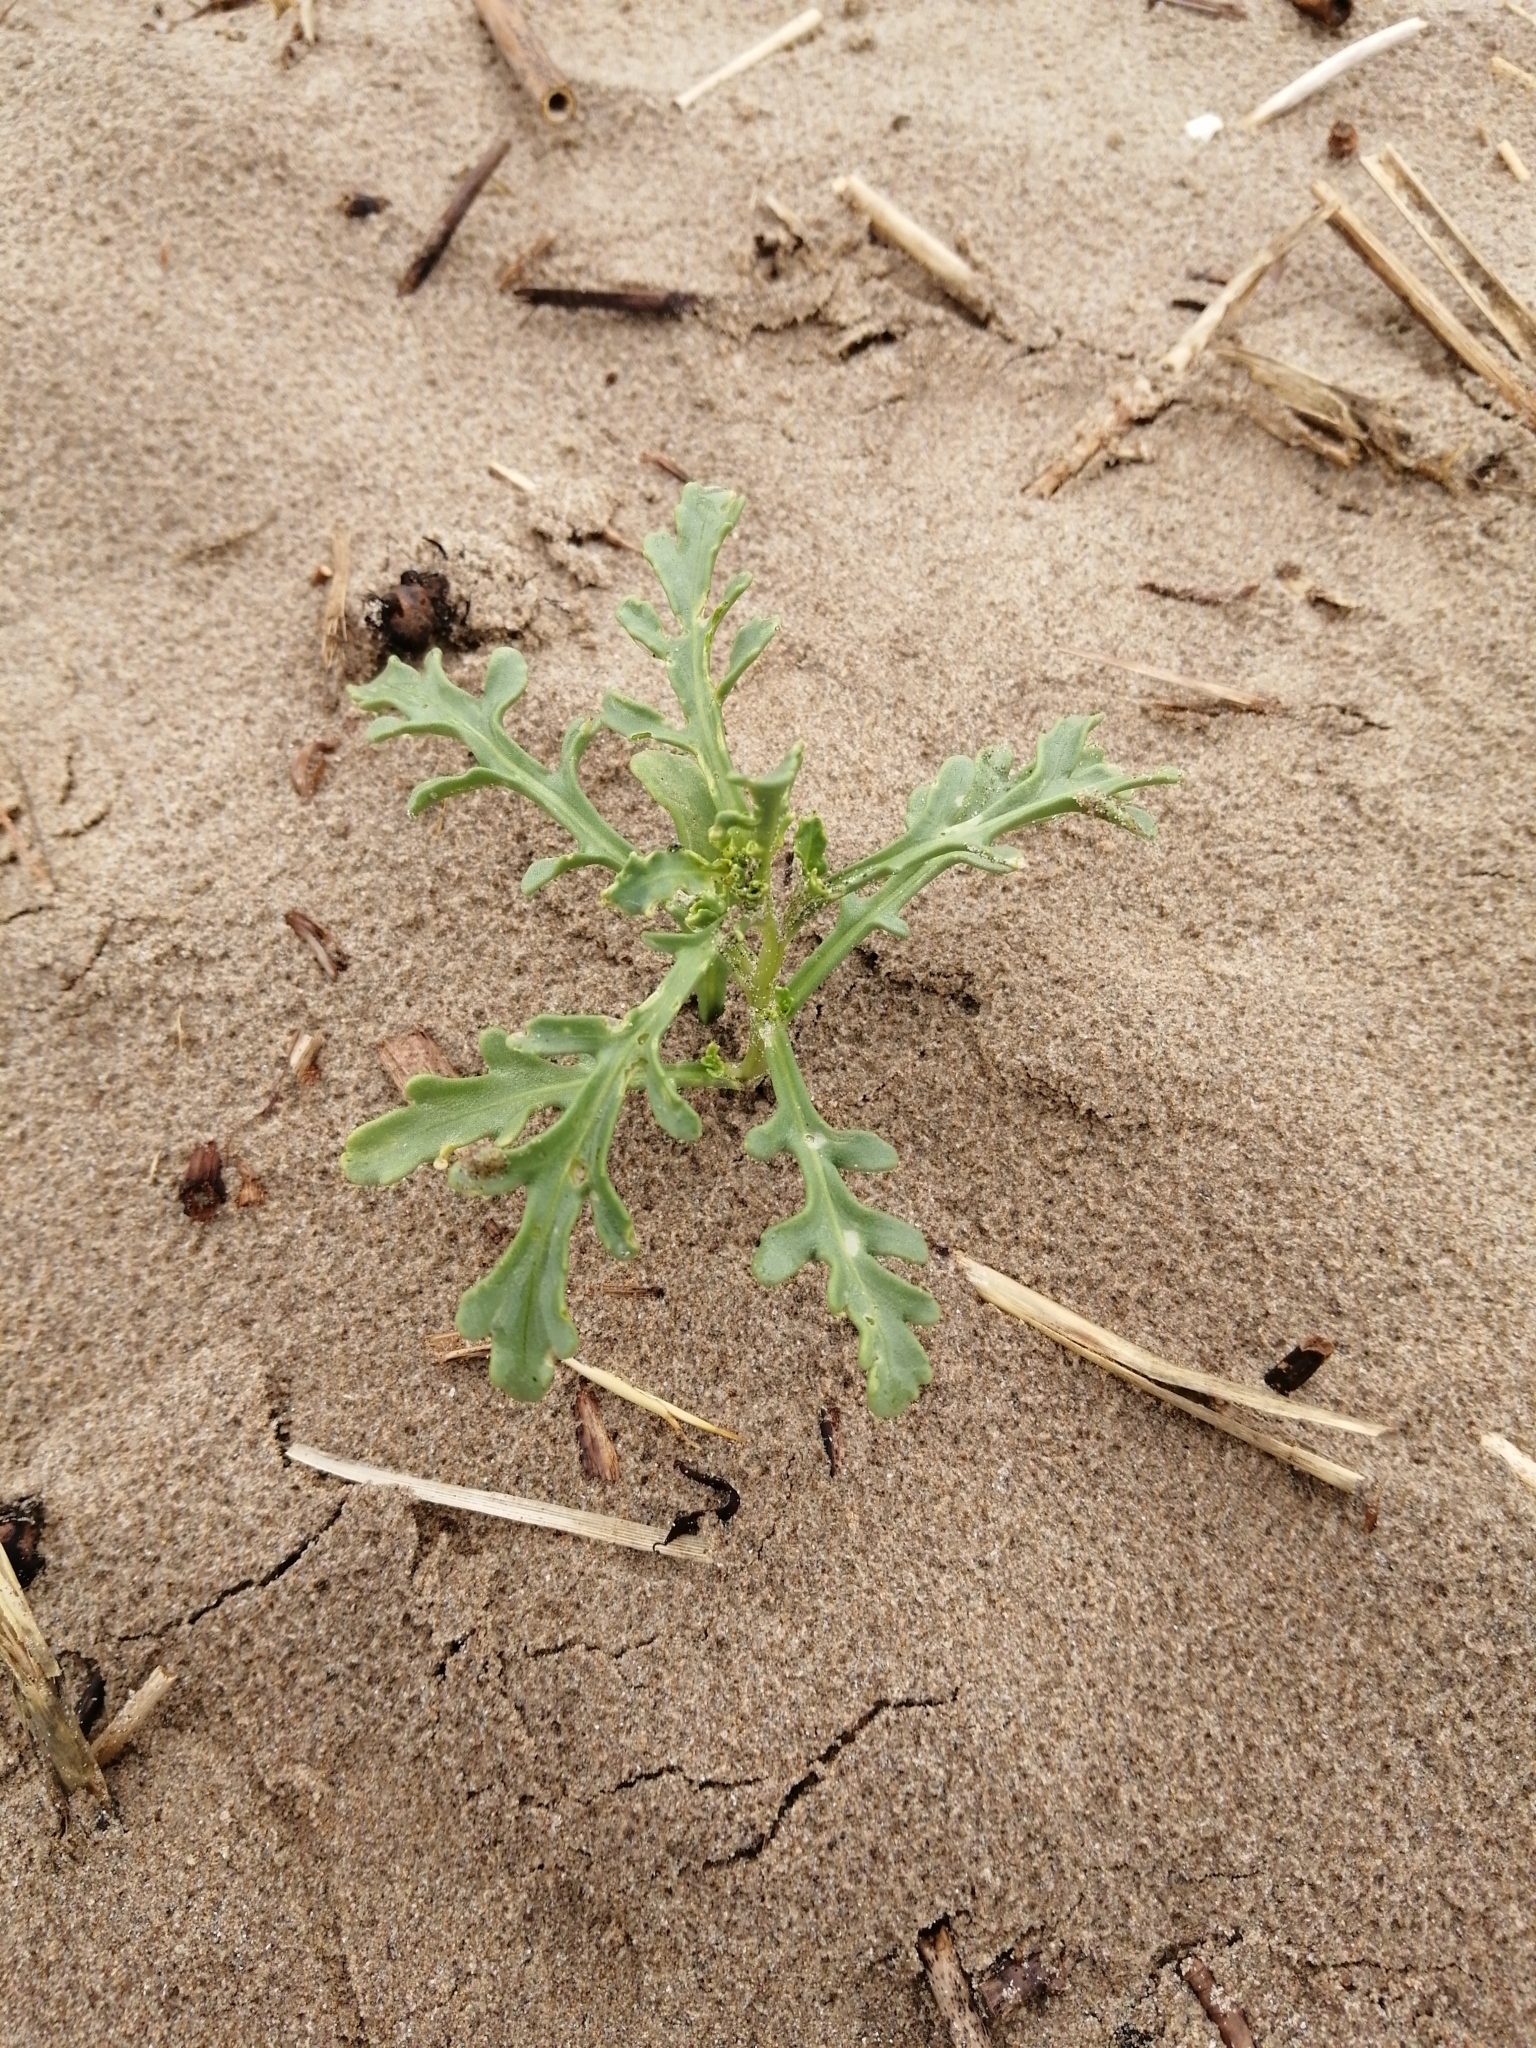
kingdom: Plantae
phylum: Tracheophyta
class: Magnoliopsida
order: Brassicales
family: Brassicaceae
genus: Cakile
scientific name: Cakile maritima
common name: Sea rocket
